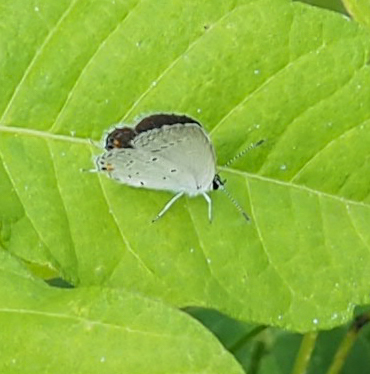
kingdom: Animalia
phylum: Arthropoda
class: Insecta
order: Lepidoptera
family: Lycaenidae
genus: Elkalyce
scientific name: Elkalyce comyntas
